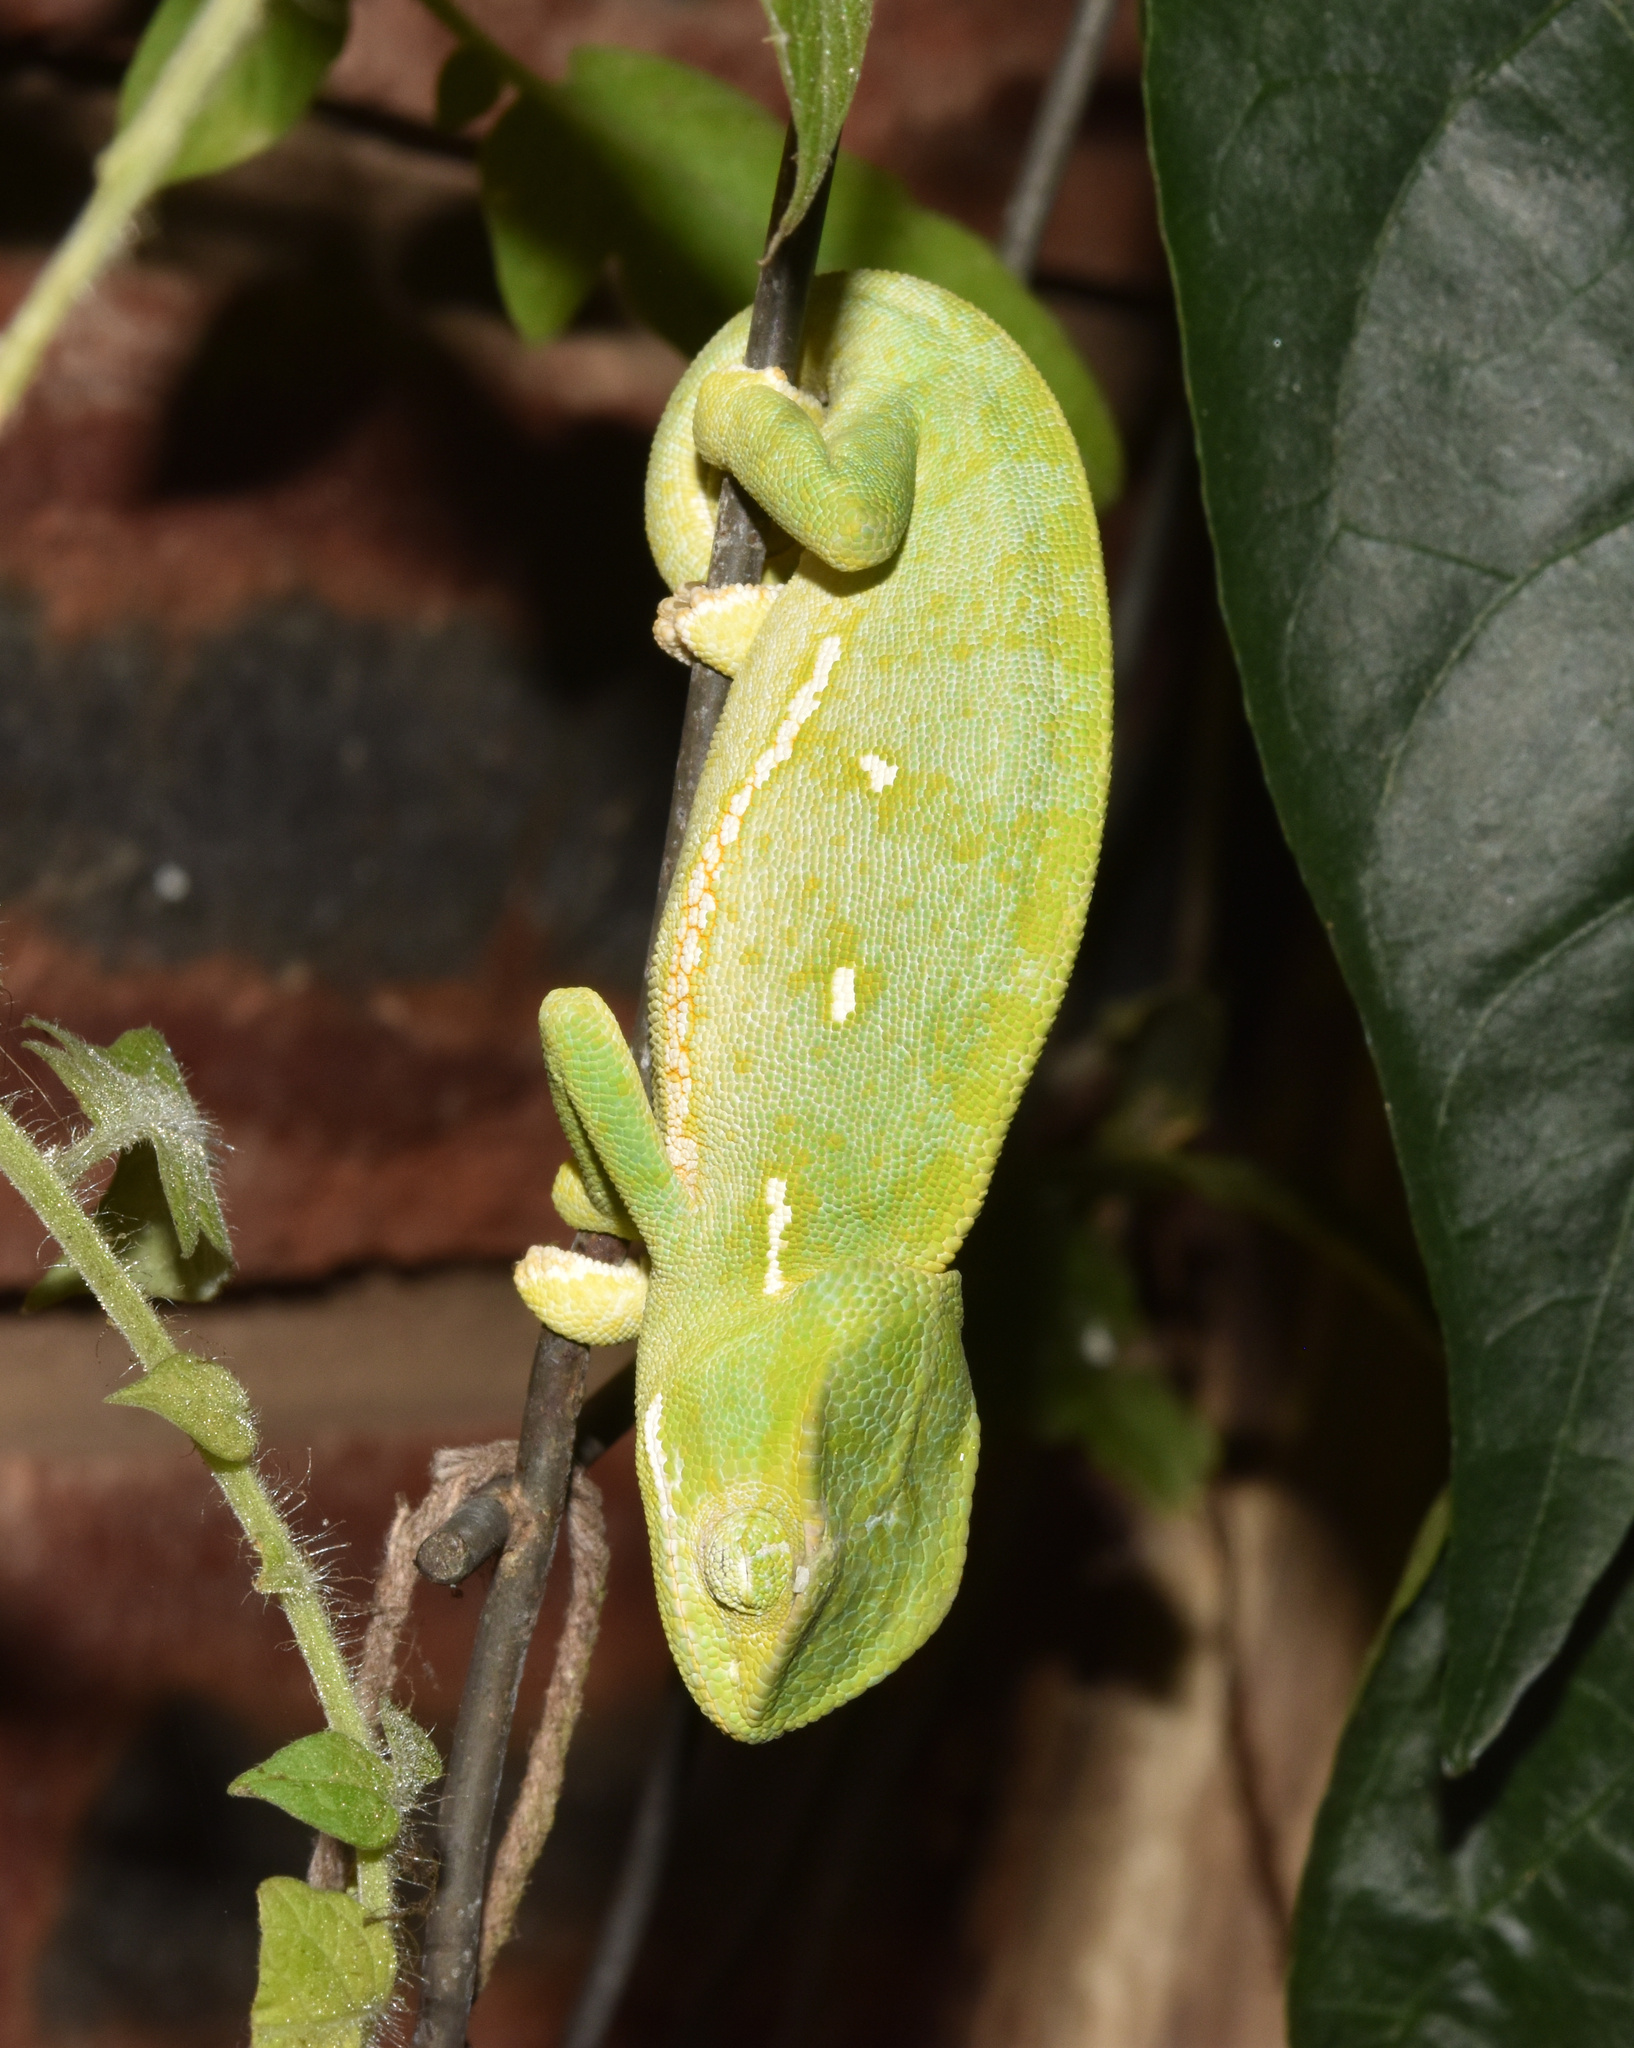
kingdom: Animalia
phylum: Chordata
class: Squamata
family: Chamaeleonidae
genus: Chamaeleo
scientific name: Chamaeleo dilepis
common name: Flapneck chameleon
